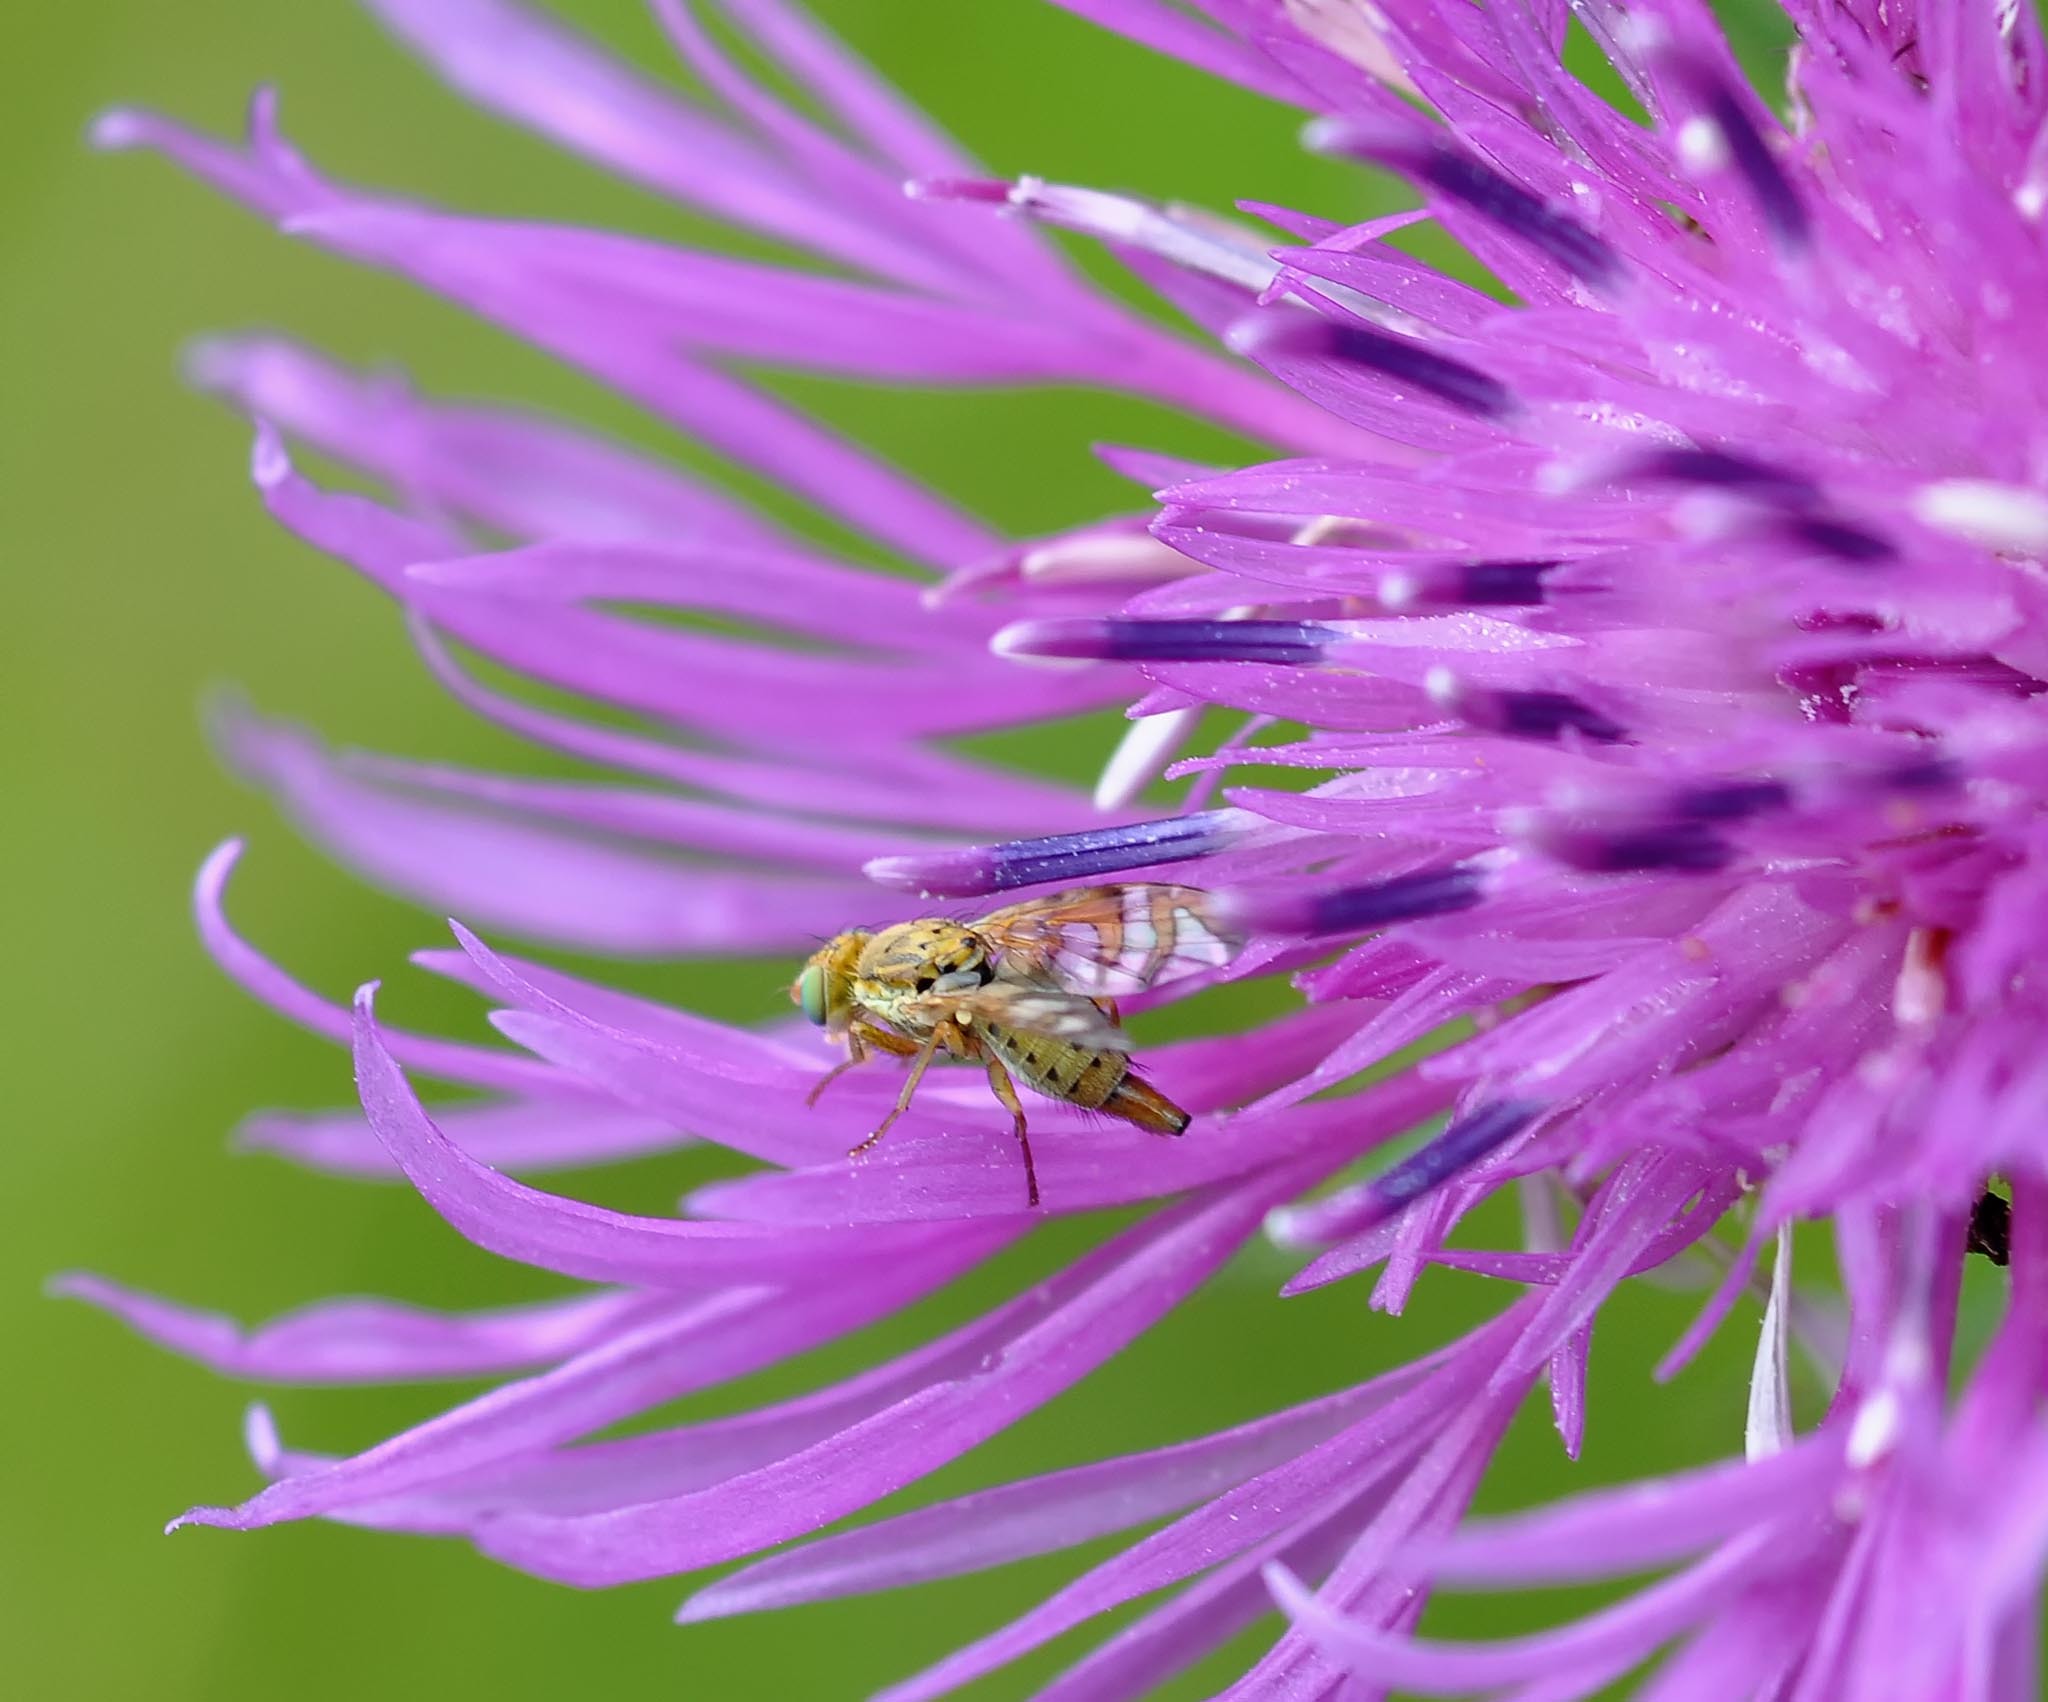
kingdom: Animalia
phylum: Arthropoda
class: Insecta
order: Diptera
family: Tephritidae
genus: Chaetostomella
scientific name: Chaetostomella cylindrica
